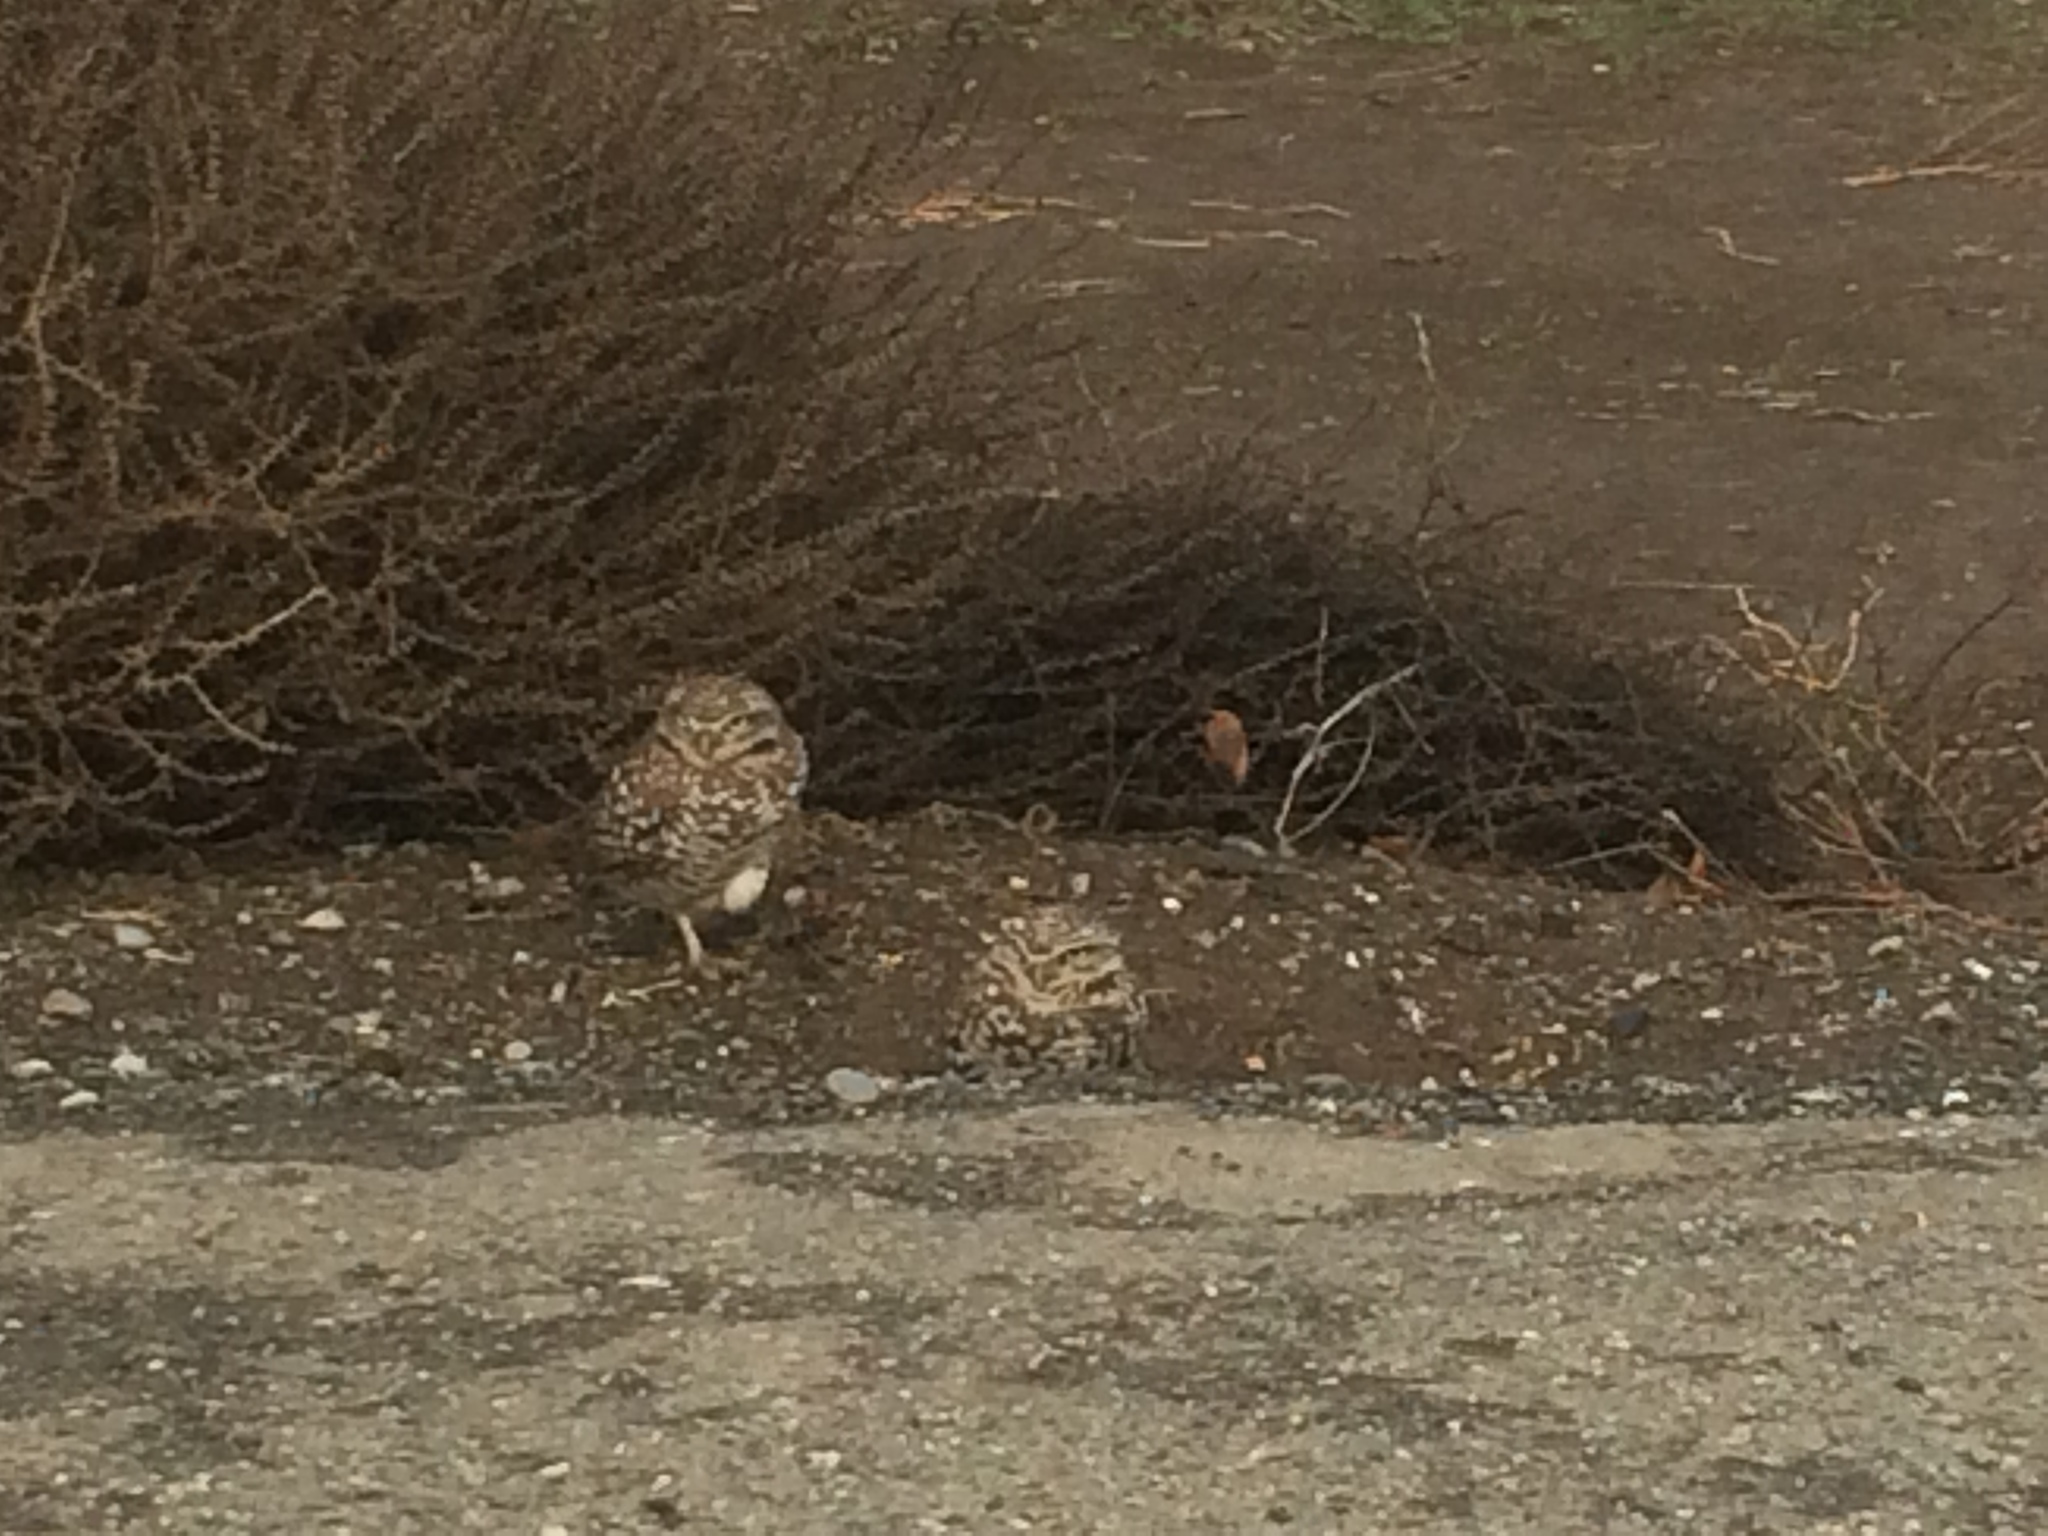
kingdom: Animalia
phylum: Chordata
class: Aves
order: Strigiformes
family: Strigidae
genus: Athene
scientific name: Athene cunicularia
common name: Burrowing owl
